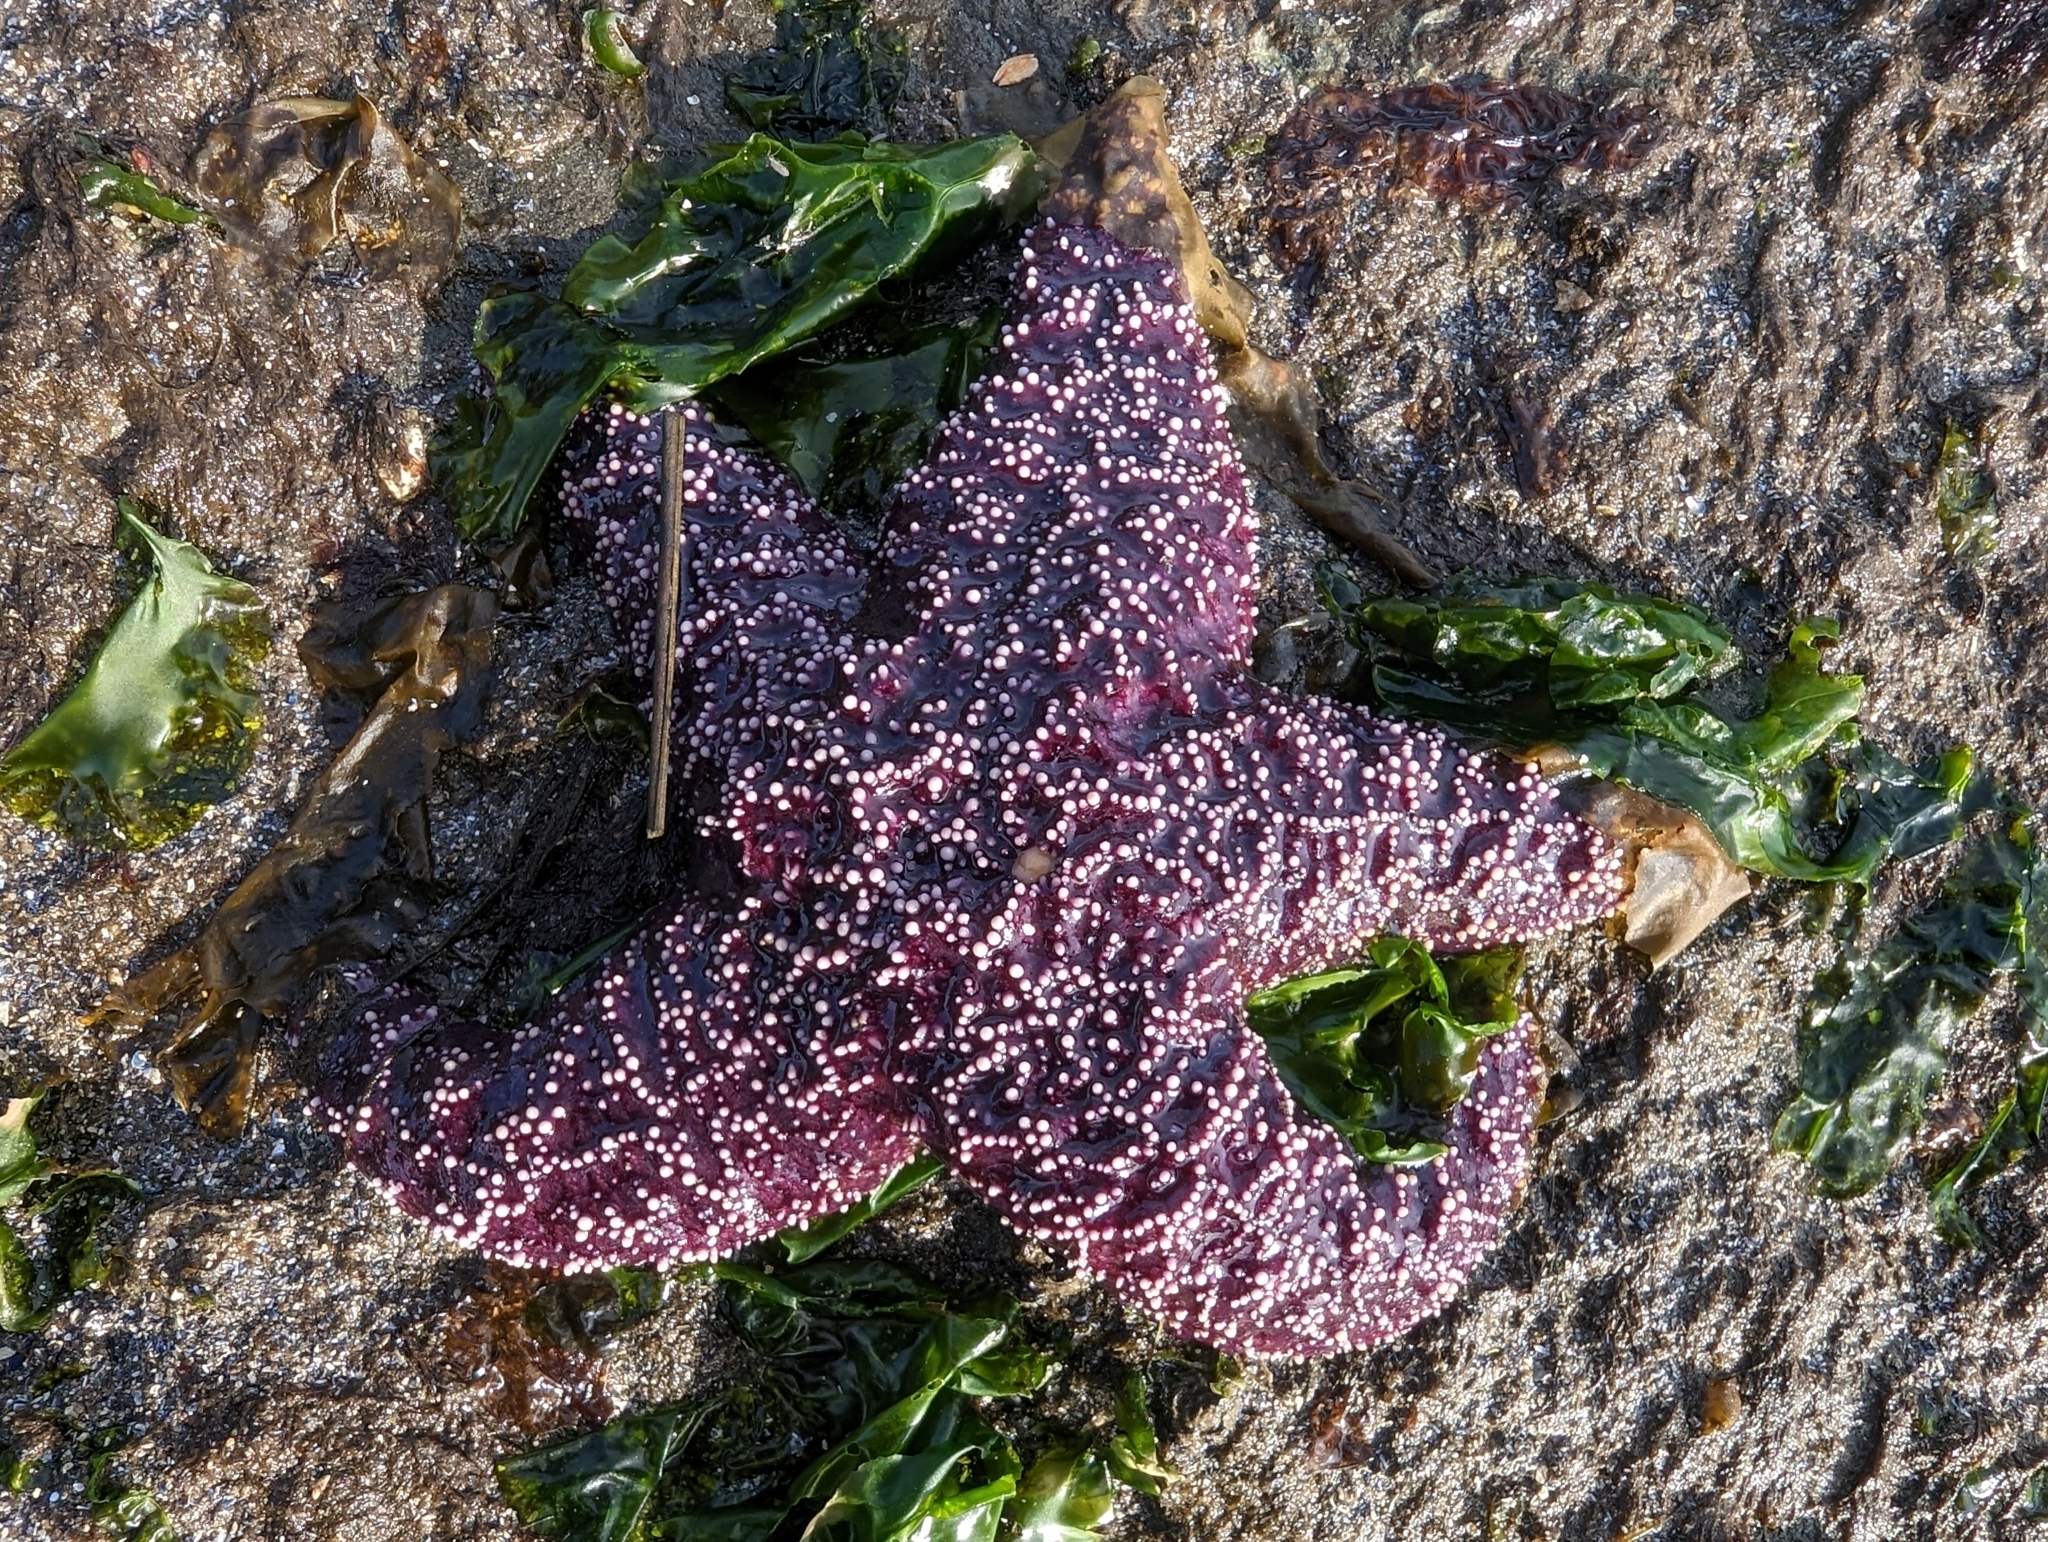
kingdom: Animalia
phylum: Echinodermata
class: Asteroidea
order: Forcipulatida
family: Asteriidae
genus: Pisaster
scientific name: Pisaster ochraceus
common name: Ochre stars
